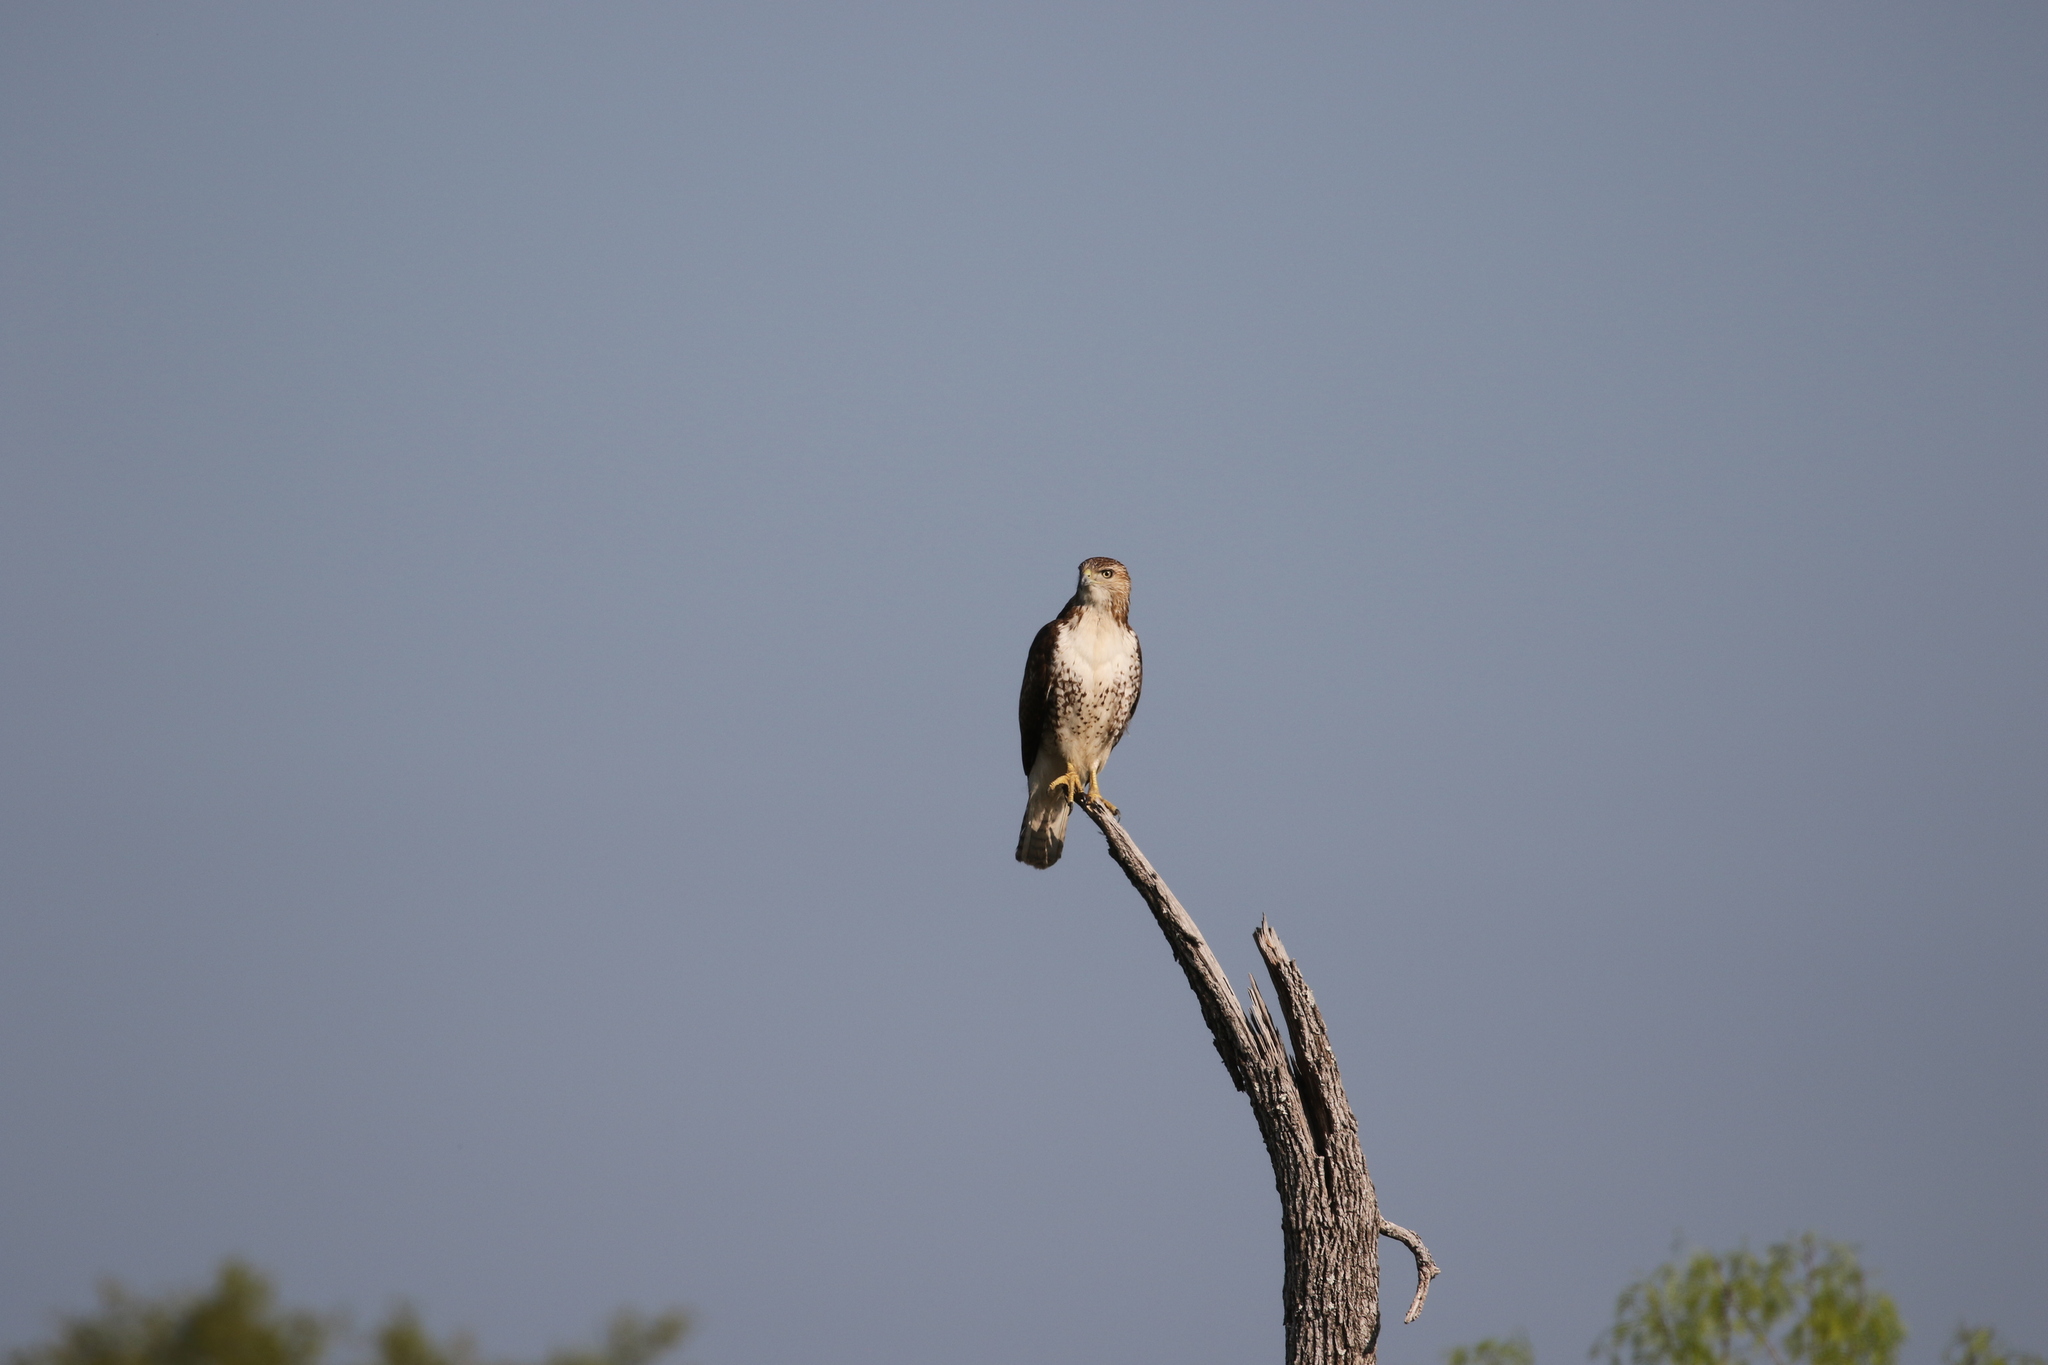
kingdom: Animalia
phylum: Chordata
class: Aves
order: Accipitriformes
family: Accipitridae
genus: Buteo
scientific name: Buteo jamaicensis
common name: Red-tailed hawk
